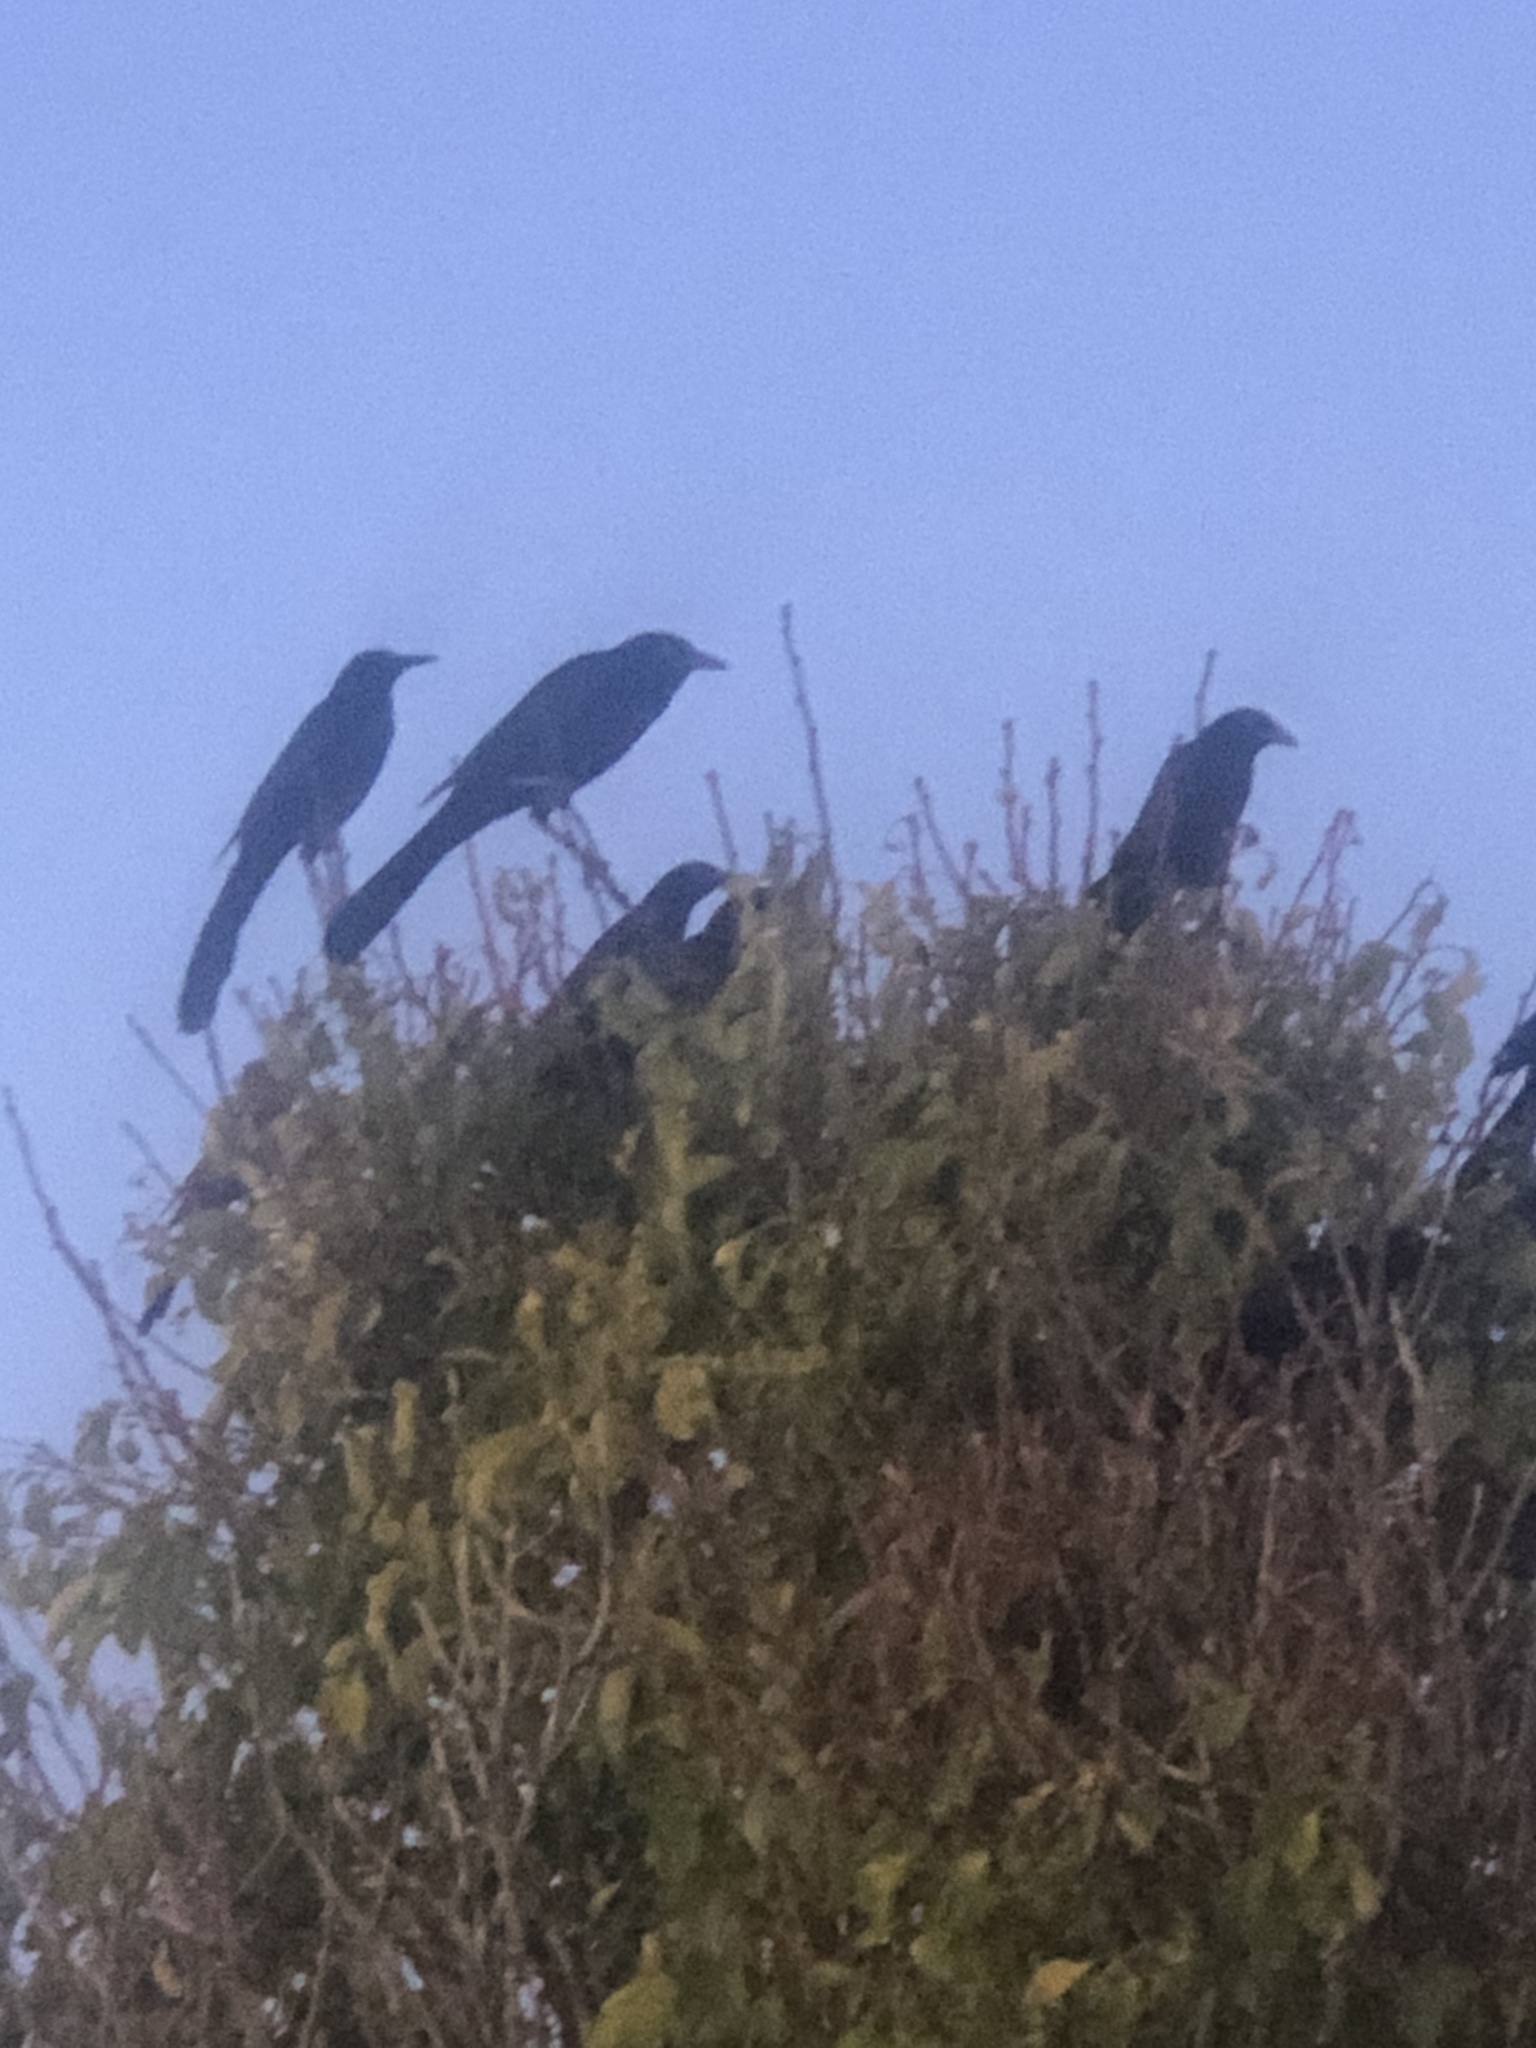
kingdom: Animalia
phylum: Chordata
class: Aves
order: Passeriformes
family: Icteridae
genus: Quiscalus
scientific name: Quiscalus mexicanus
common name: Great-tailed grackle
